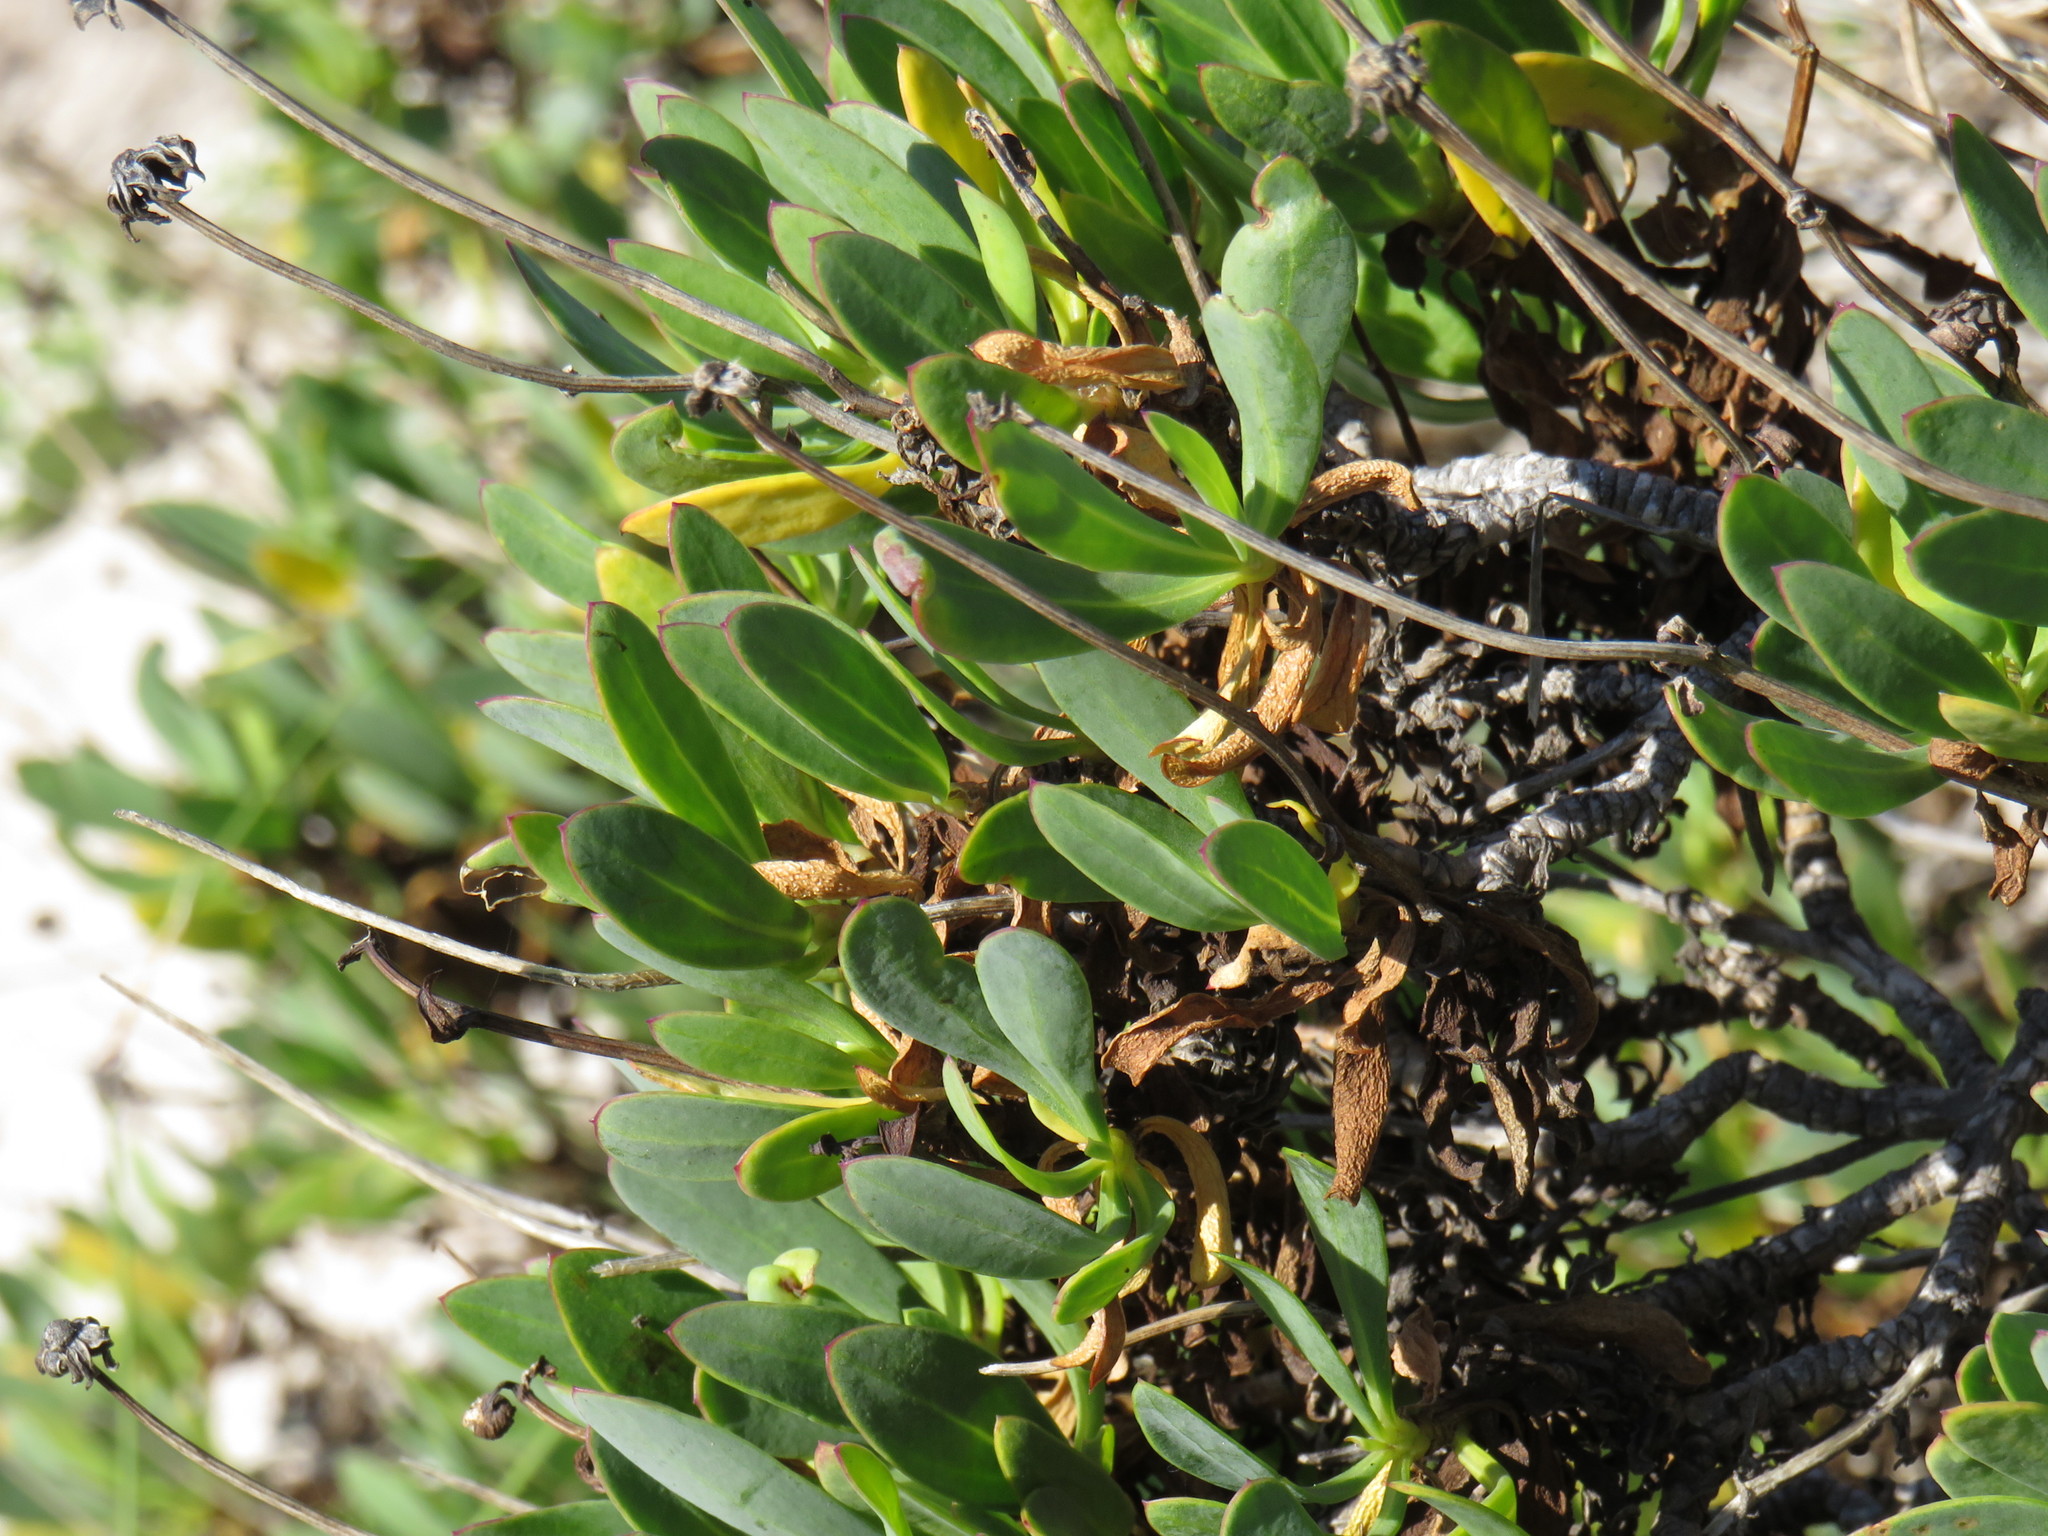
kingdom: Plantae
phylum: Tracheophyta
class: Magnoliopsida
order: Asterales
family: Asteraceae
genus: Othonna
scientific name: Othonna arborescens
